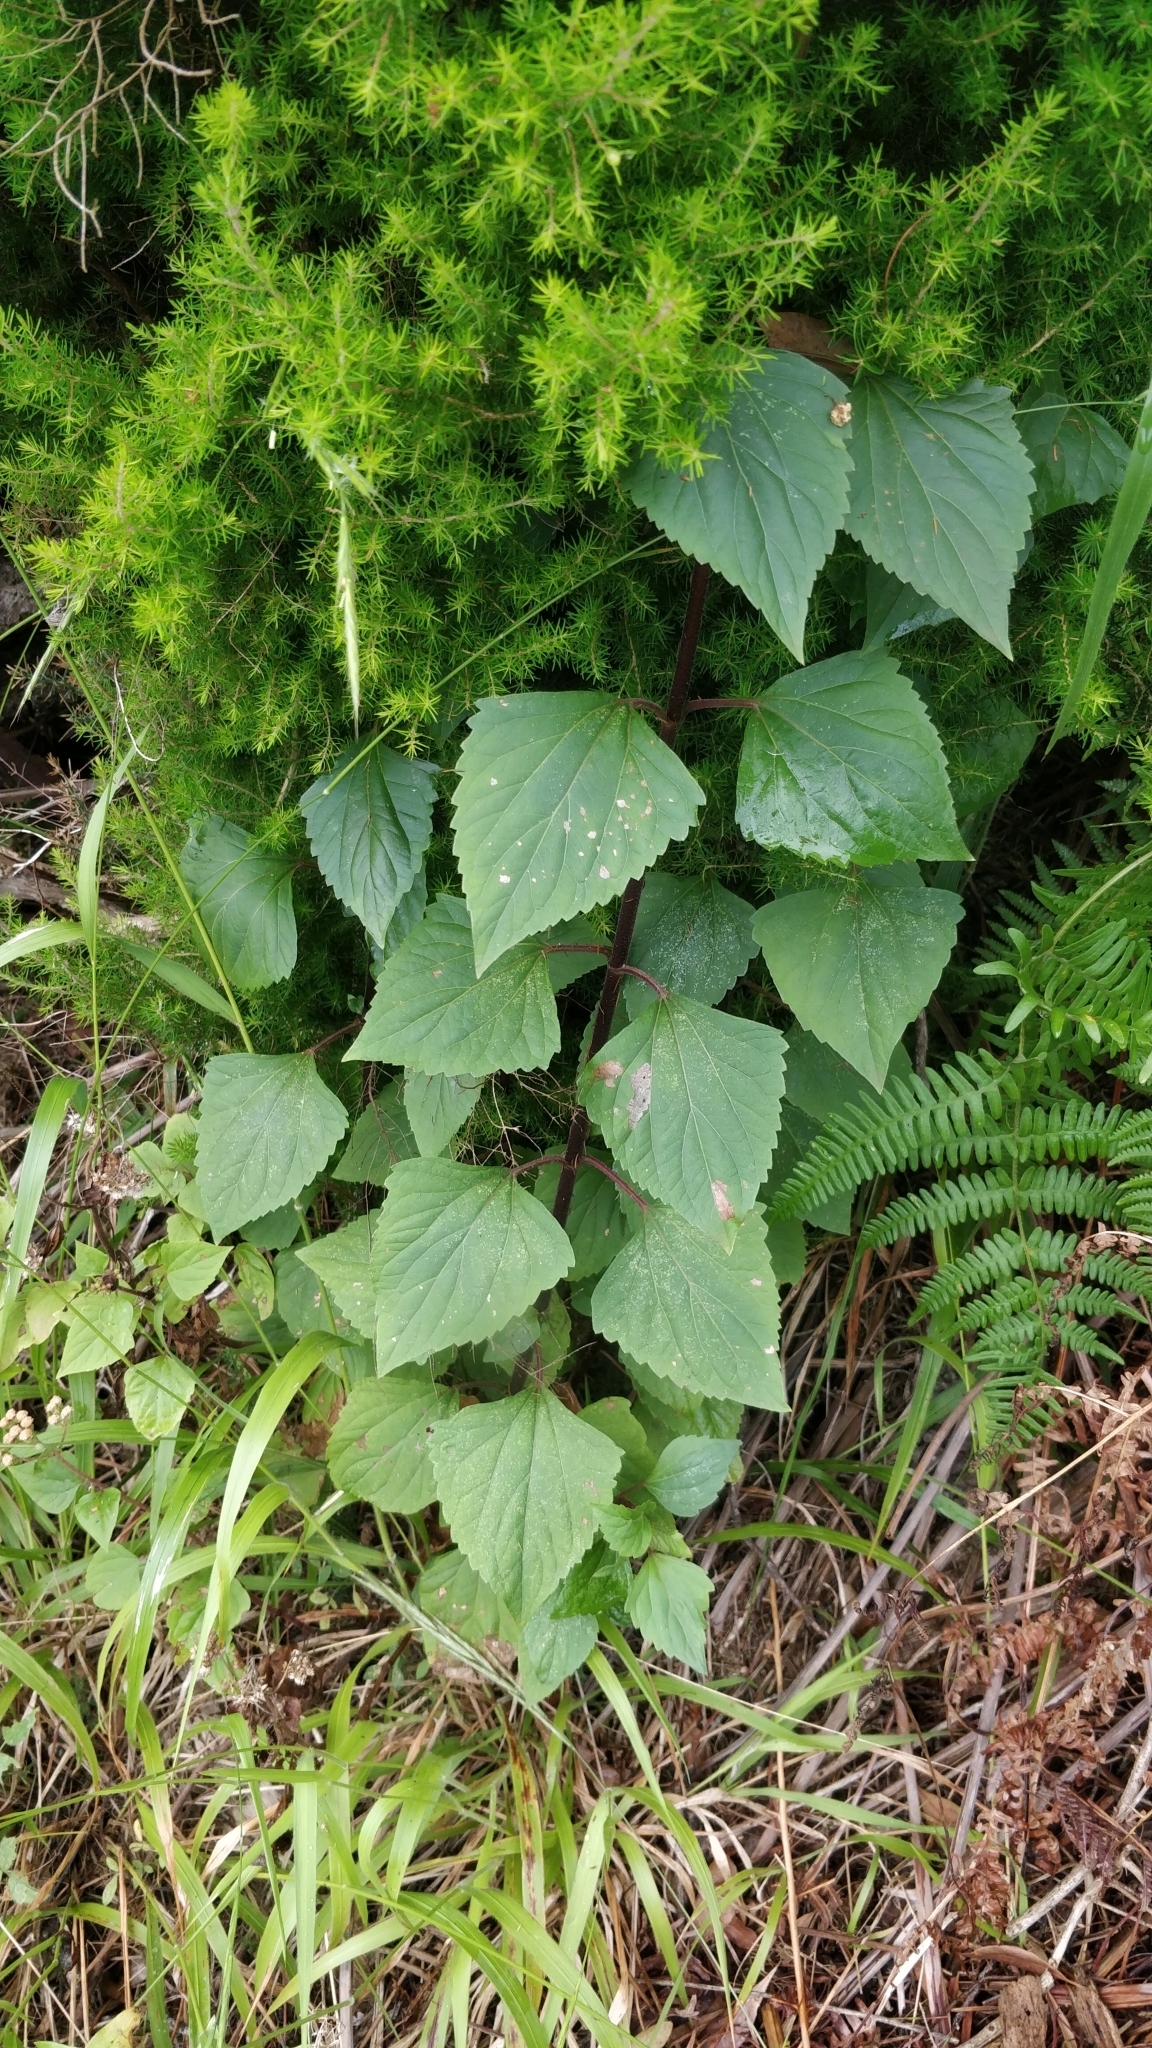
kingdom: Plantae
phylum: Tracheophyta
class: Magnoliopsida
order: Asterales
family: Asteraceae
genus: Ageratina
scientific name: Ageratina adenophora
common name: Sticky snakeroot
